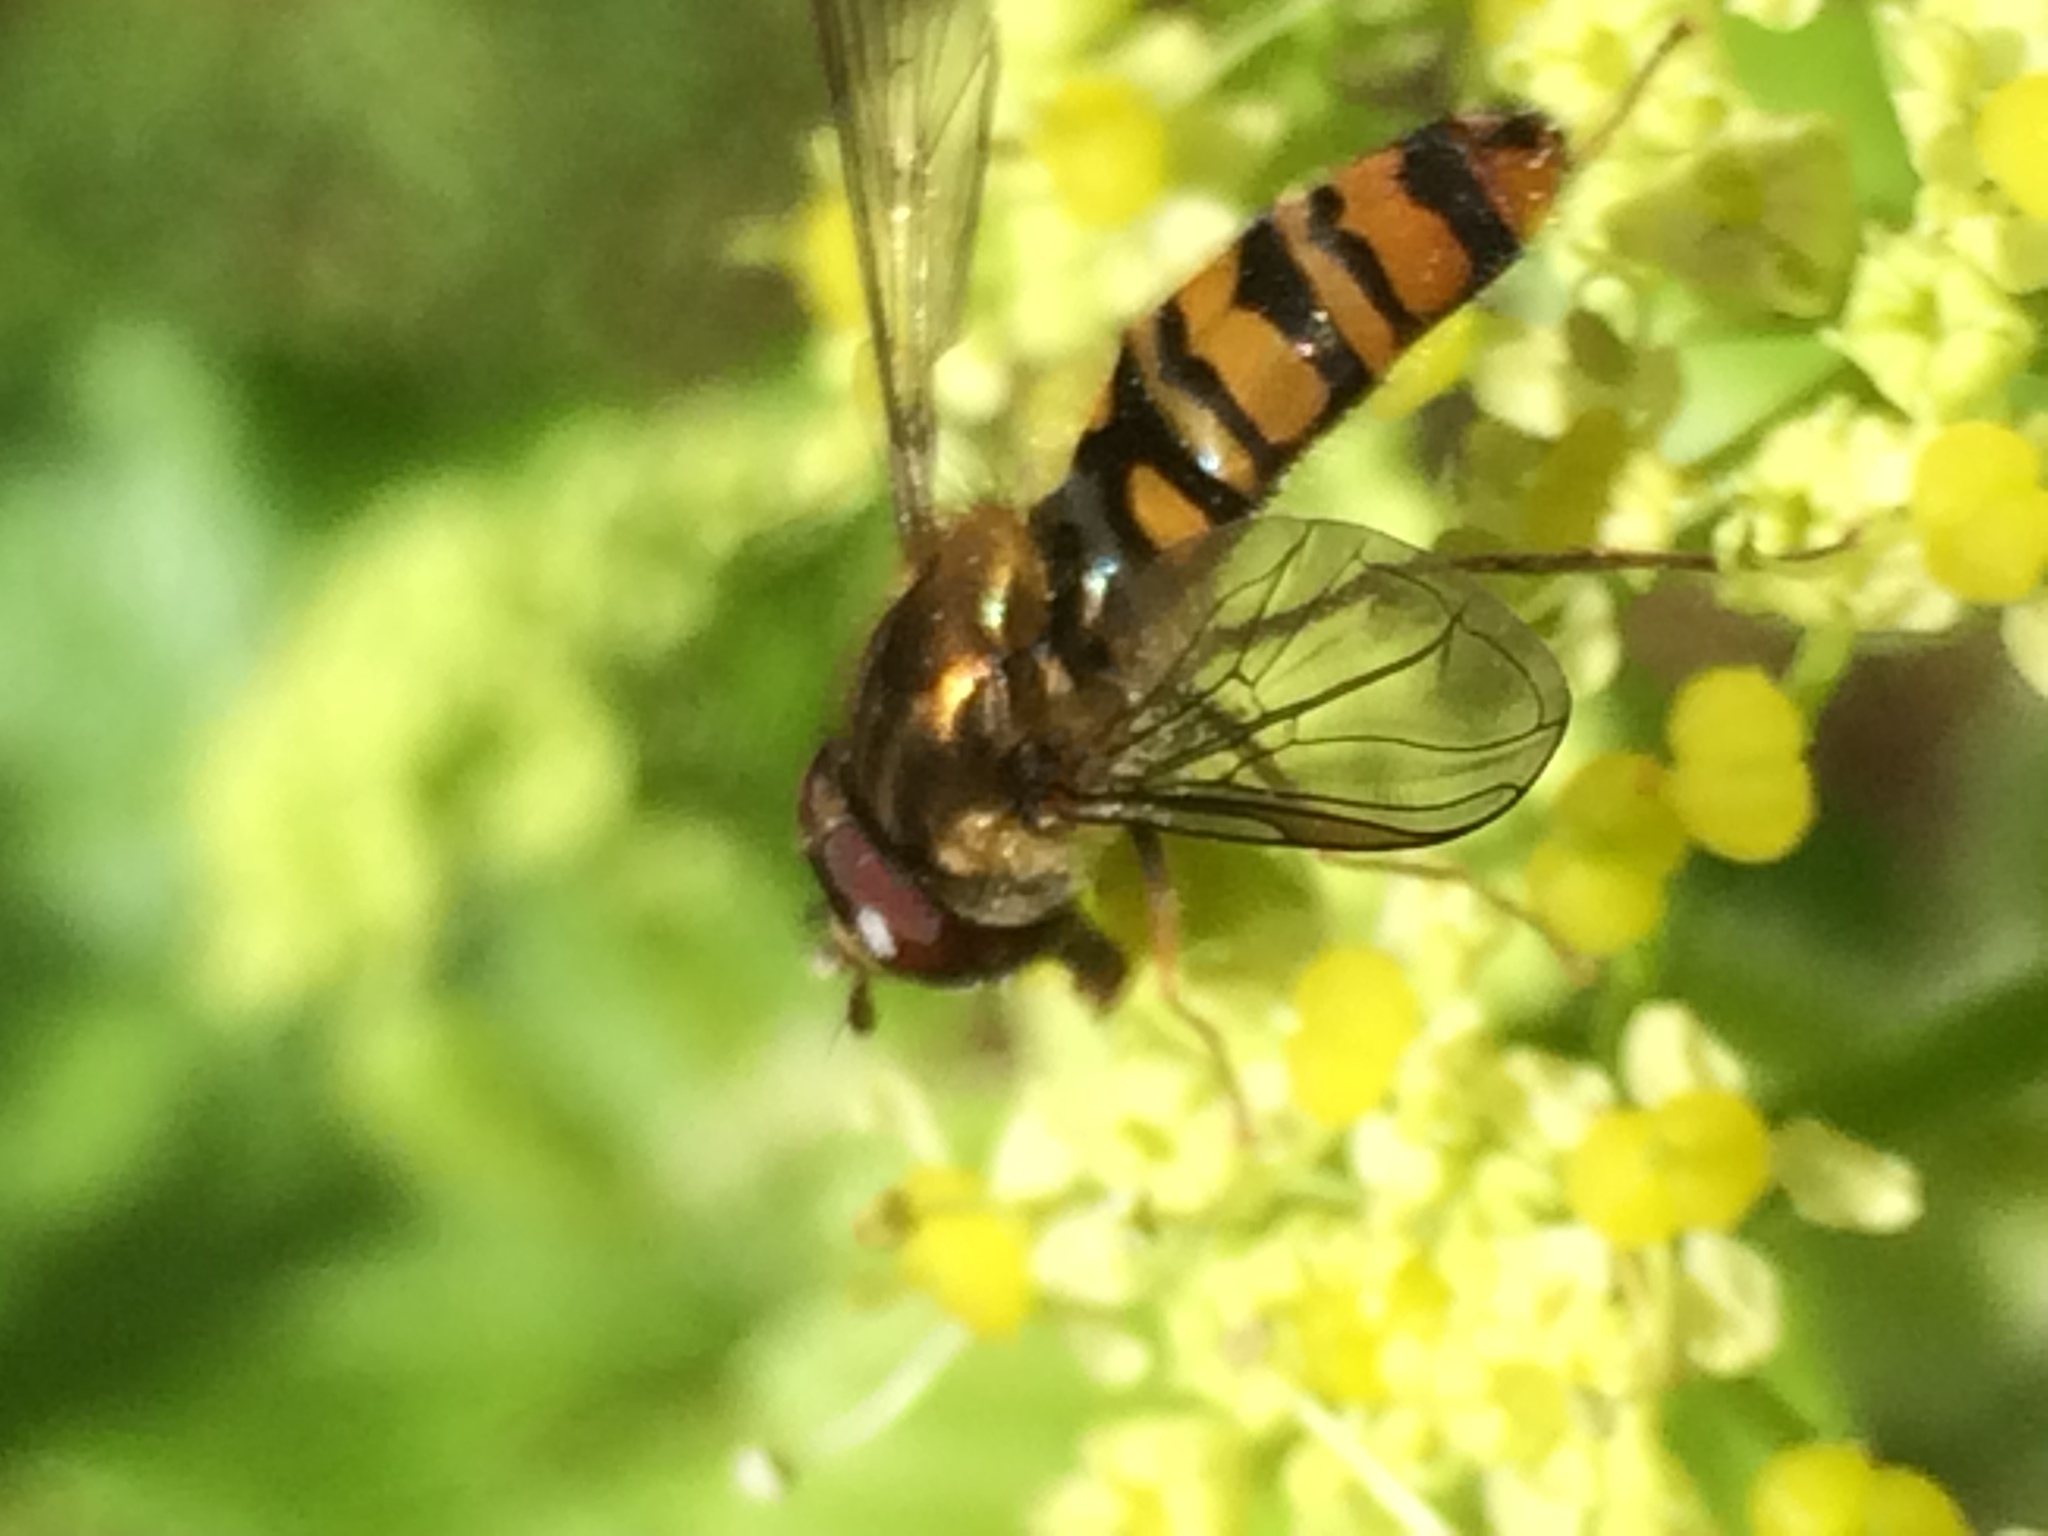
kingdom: Animalia
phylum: Arthropoda
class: Insecta
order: Diptera
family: Syrphidae
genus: Episyrphus
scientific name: Episyrphus balteatus
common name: Marmalade hoverfly
